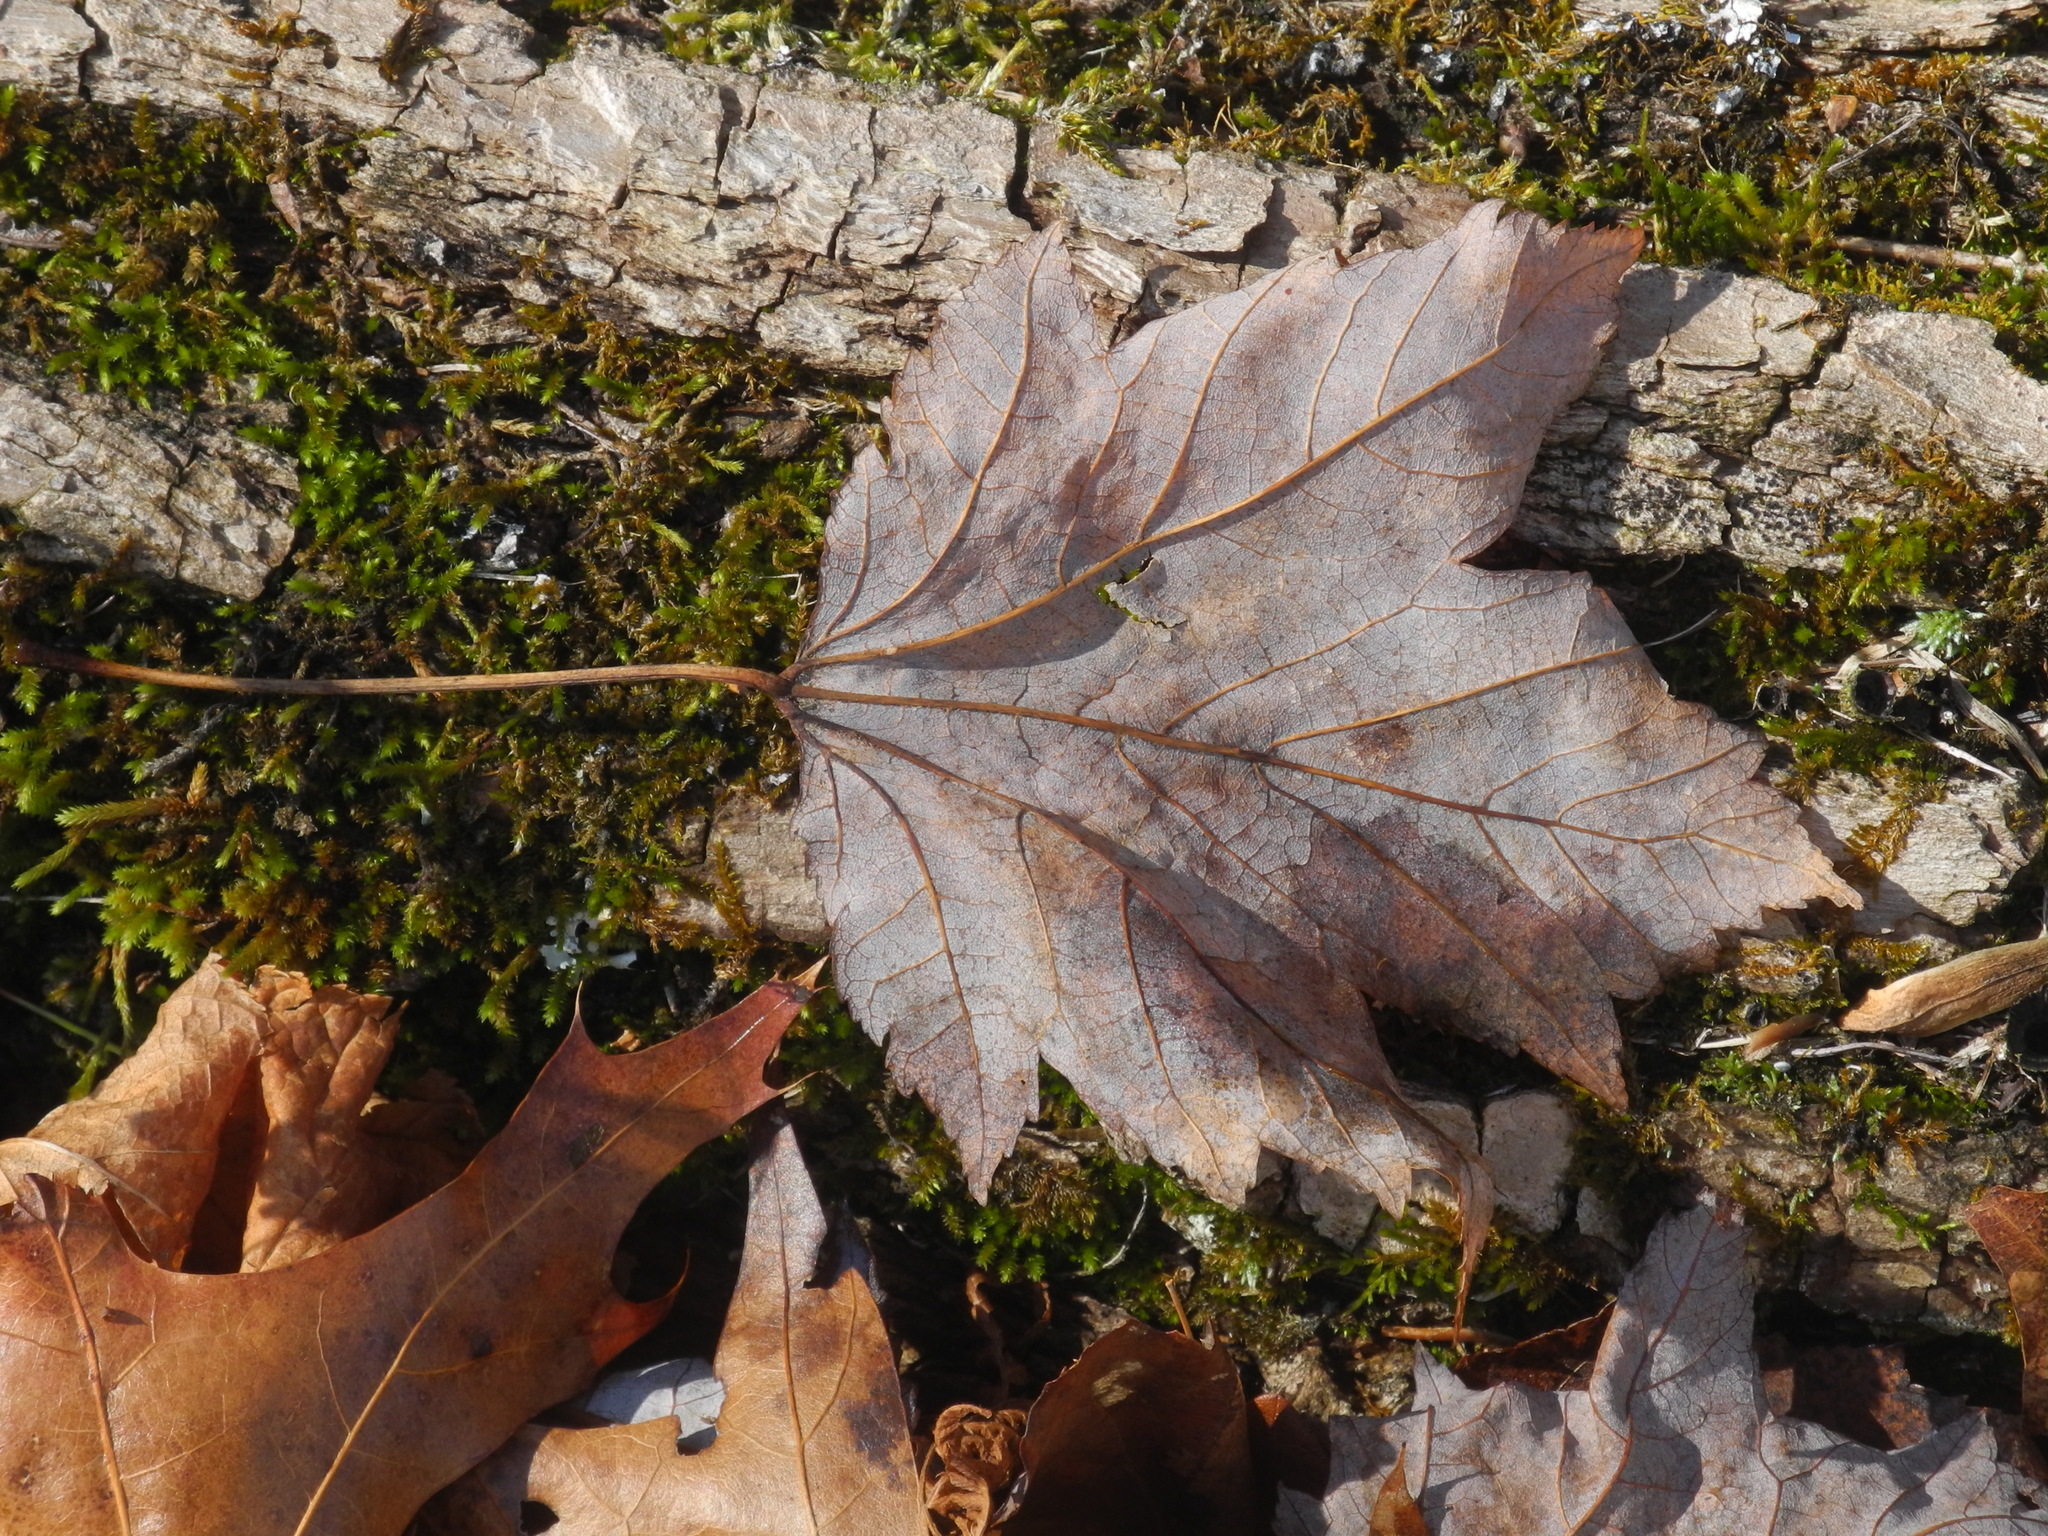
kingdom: Plantae
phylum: Tracheophyta
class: Magnoliopsida
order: Sapindales
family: Sapindaceae
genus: Acer
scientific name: Acer freemanii
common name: Freeman maple
